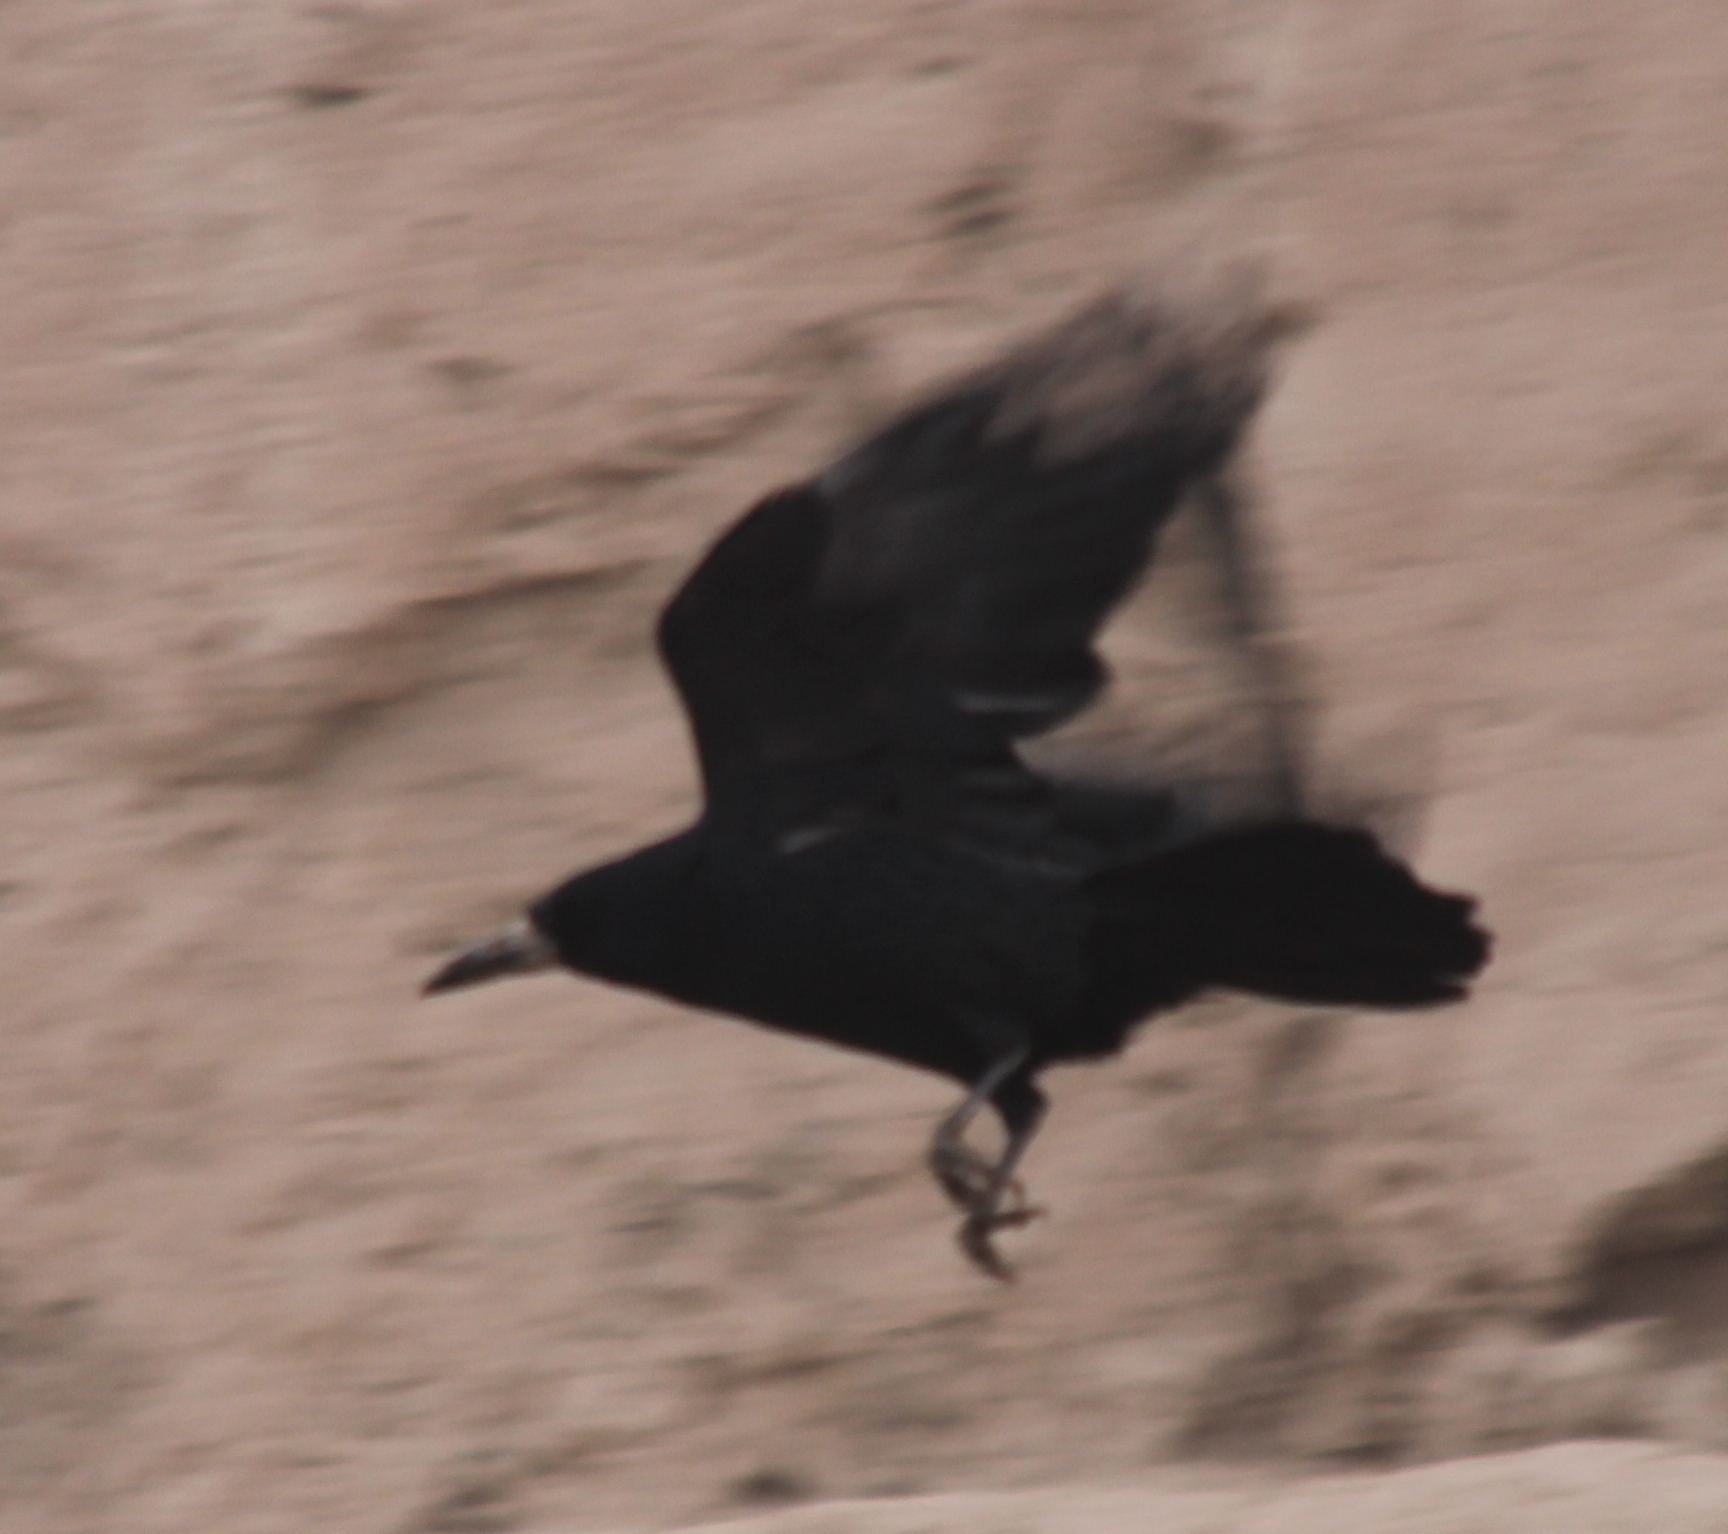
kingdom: Animalia
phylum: Chordata
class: Aves
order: Passeriformes
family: Corvidae
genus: Corvus
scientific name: Corvus frugilegus
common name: Rook
